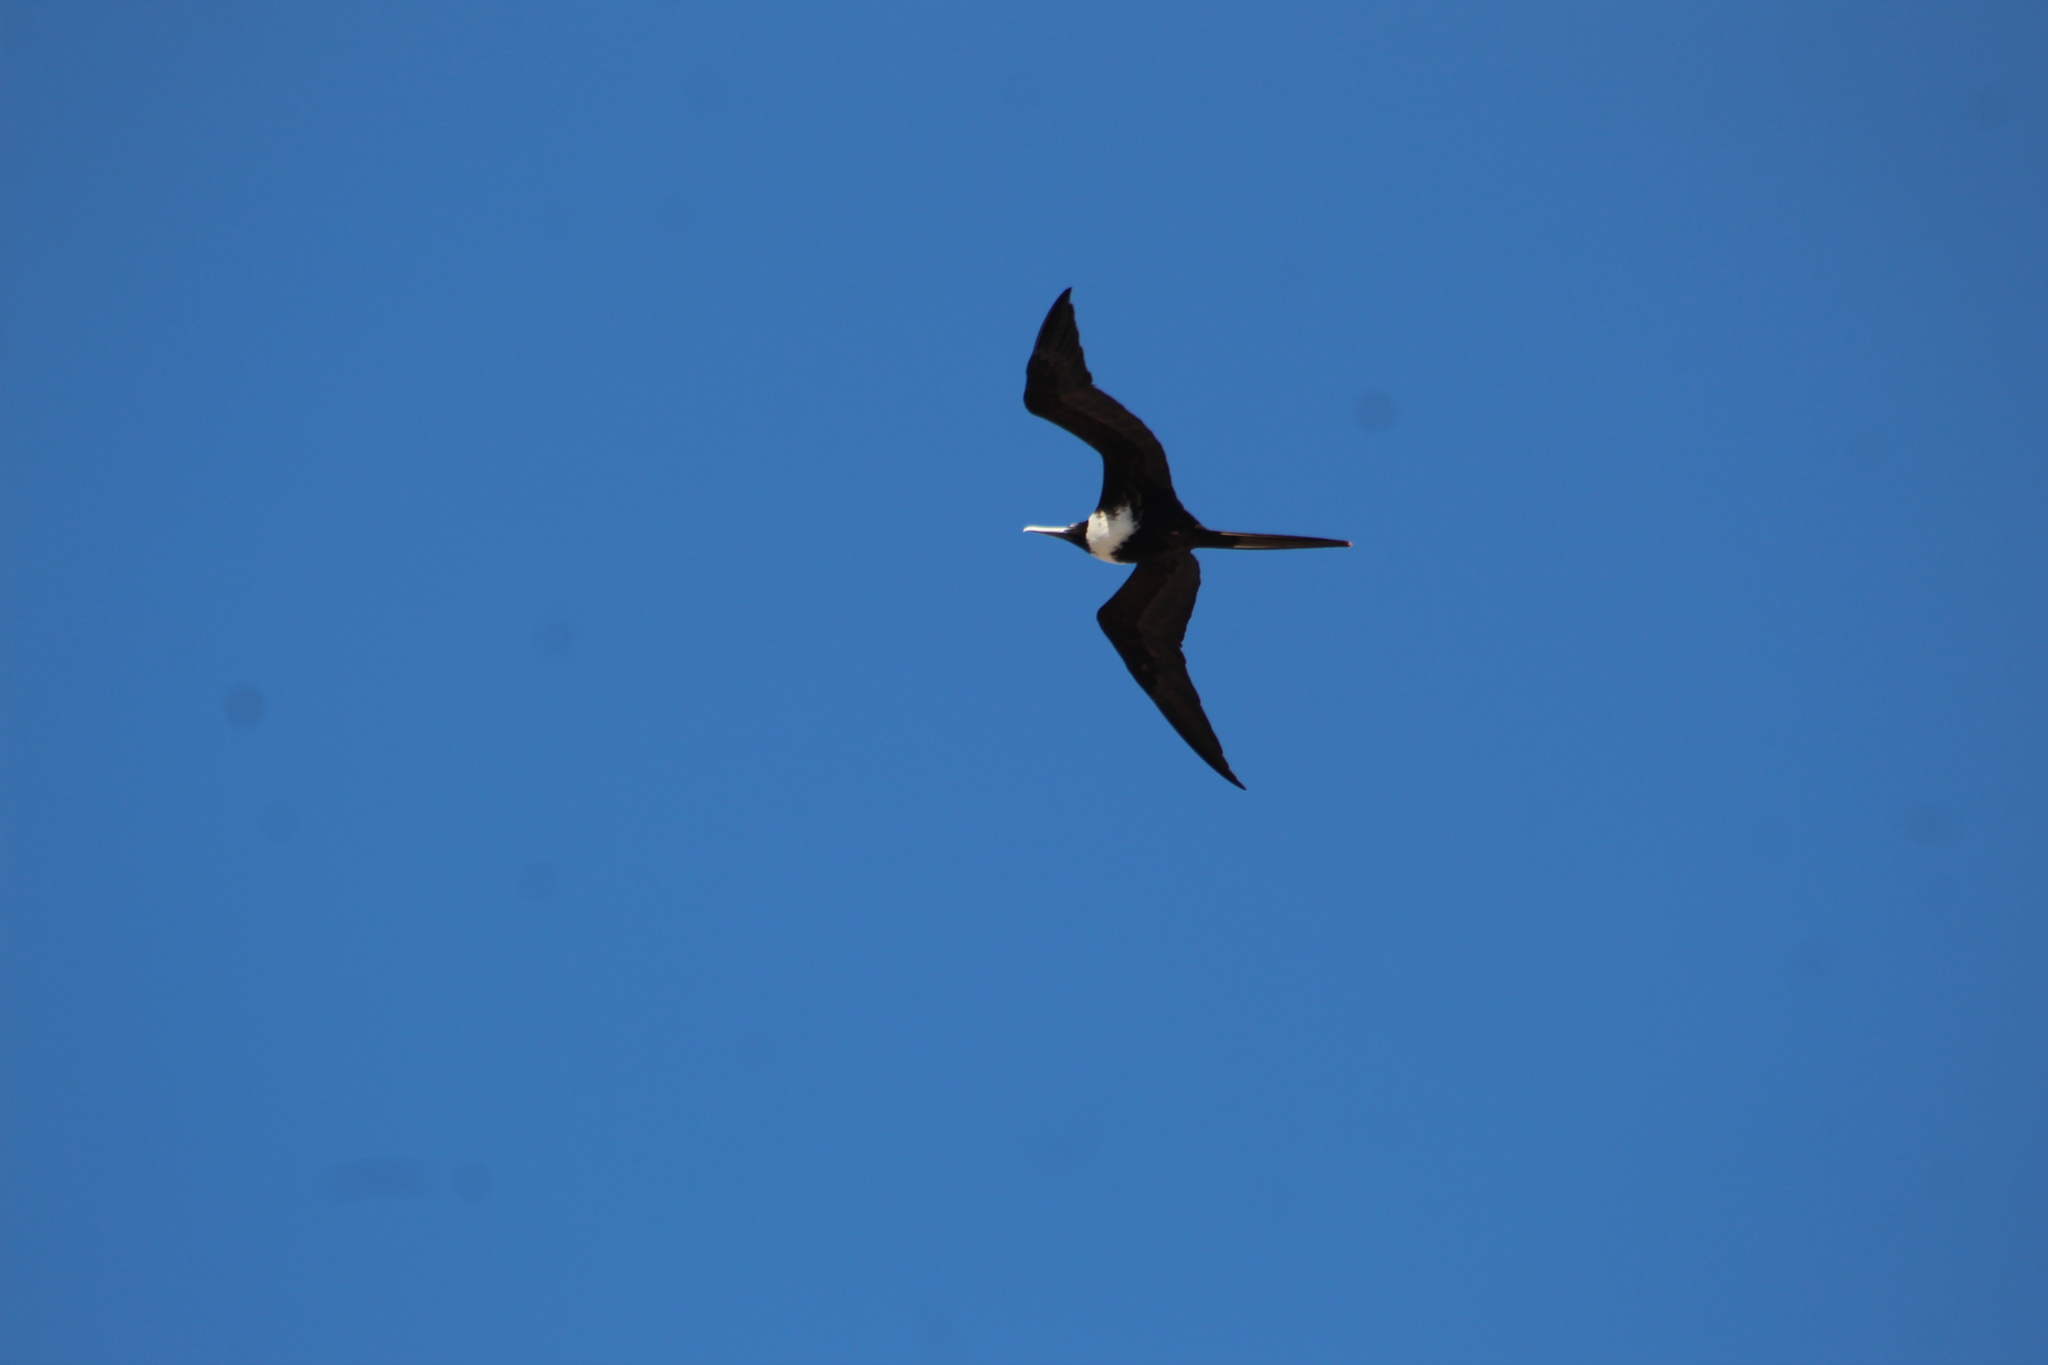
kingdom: Animalia
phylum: Chordata
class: Aves
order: Suliformes
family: Fregatidae
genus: Fregata
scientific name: Fregata magnificens
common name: Magnificent frigatebird
